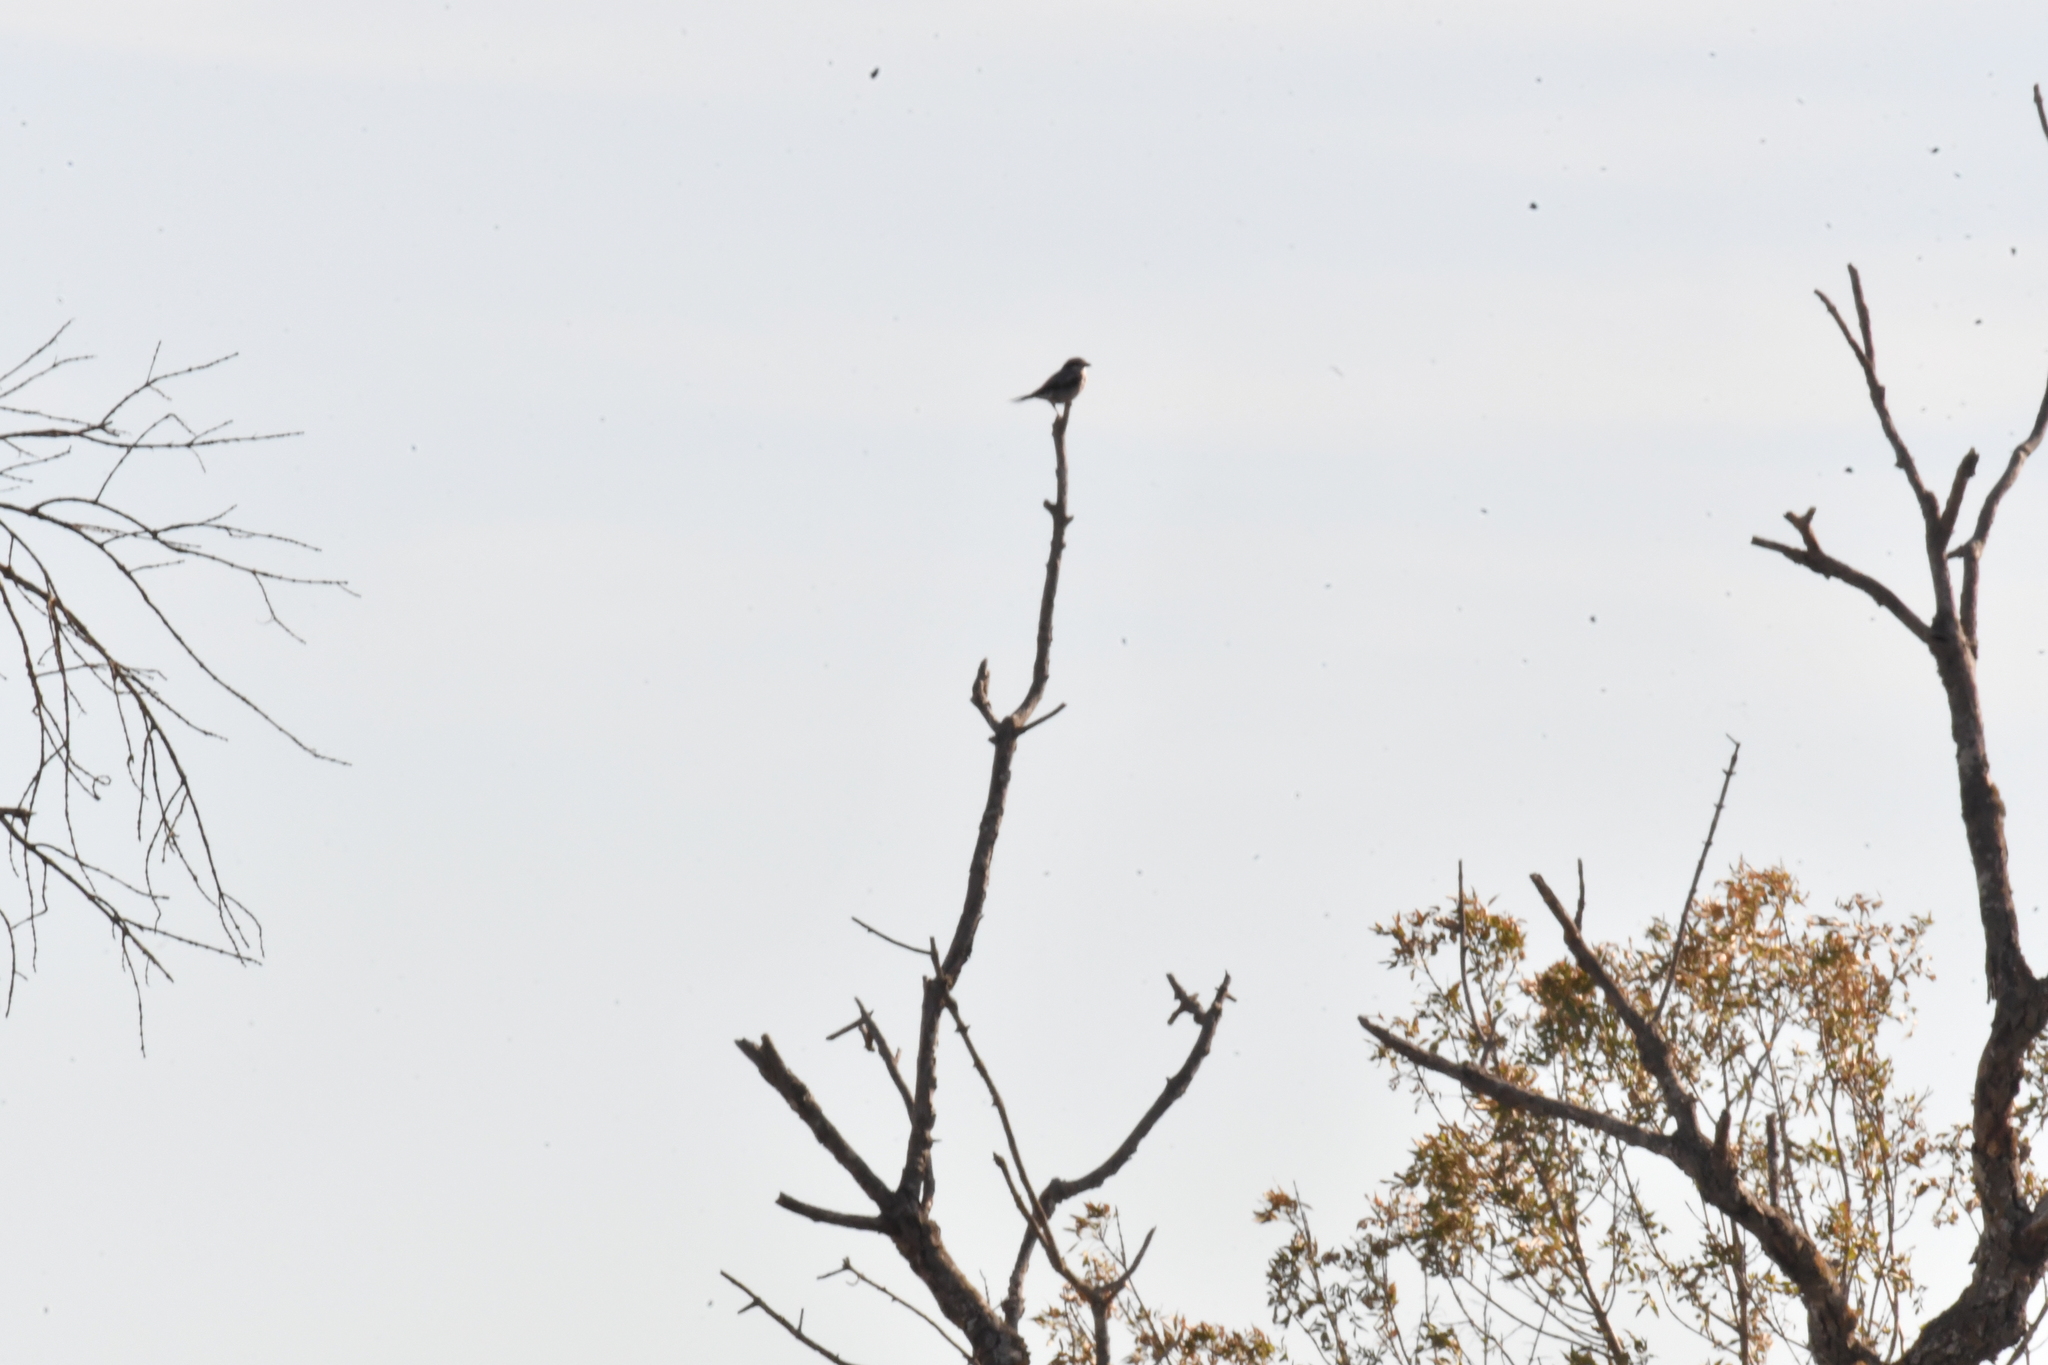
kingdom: Animalia
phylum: Chordata
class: Aves
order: Passeriformes
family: Laniidae
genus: Lanius
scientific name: Lanius meridionalis
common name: Iberian grey shrike
